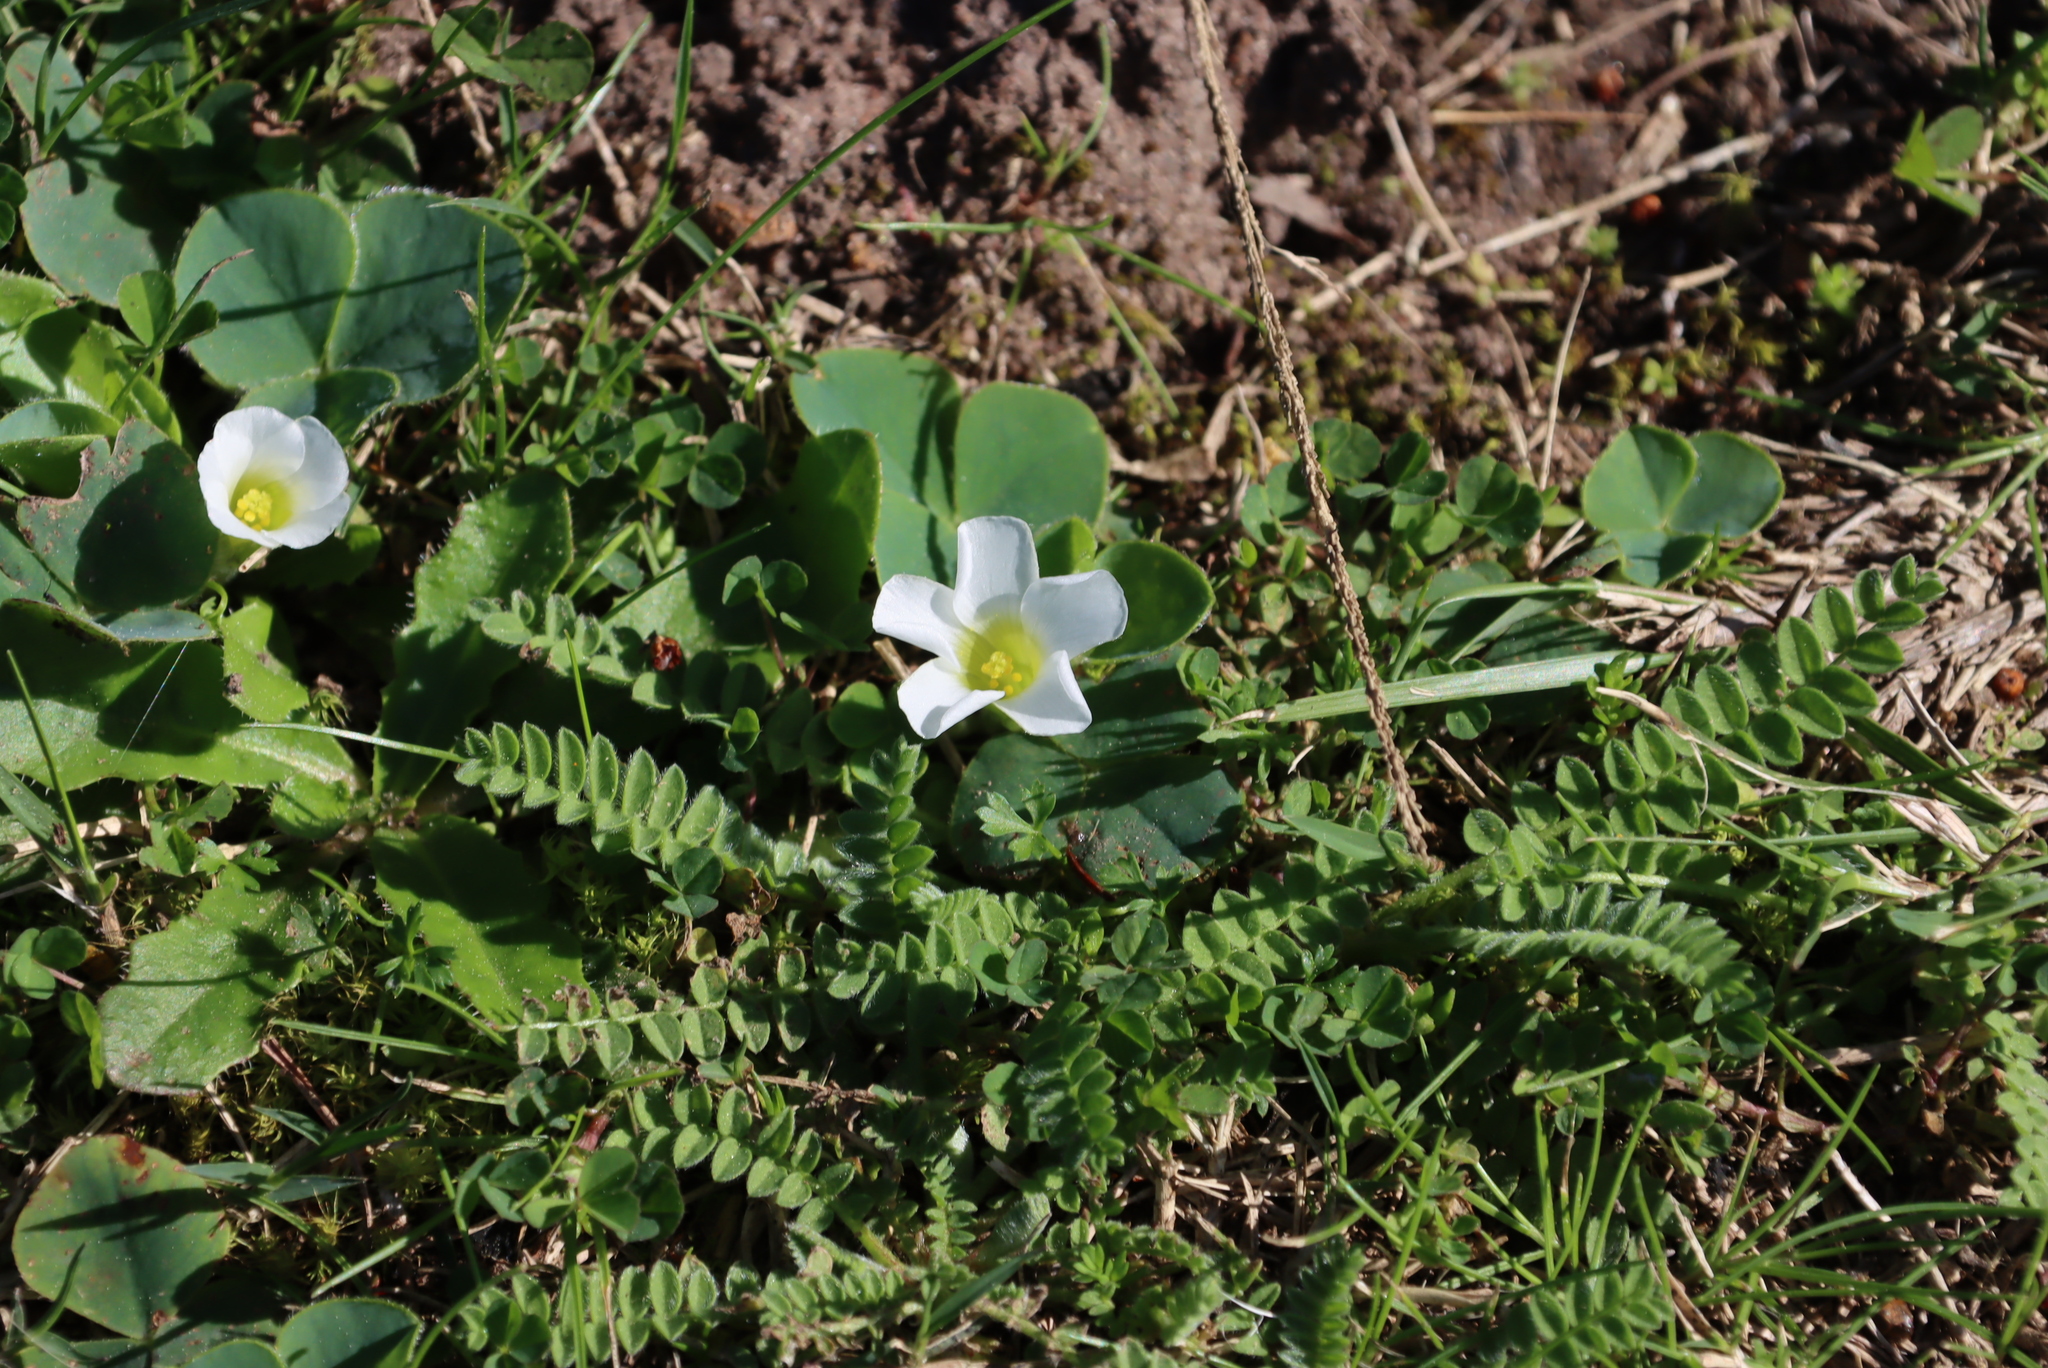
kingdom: Plantae
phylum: Tracheophyta
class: Magnoliopsida
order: Oxalidales
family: Oxalidaceae
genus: Oxalis
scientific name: Oxalis purpurea
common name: Purple woodsorrel
